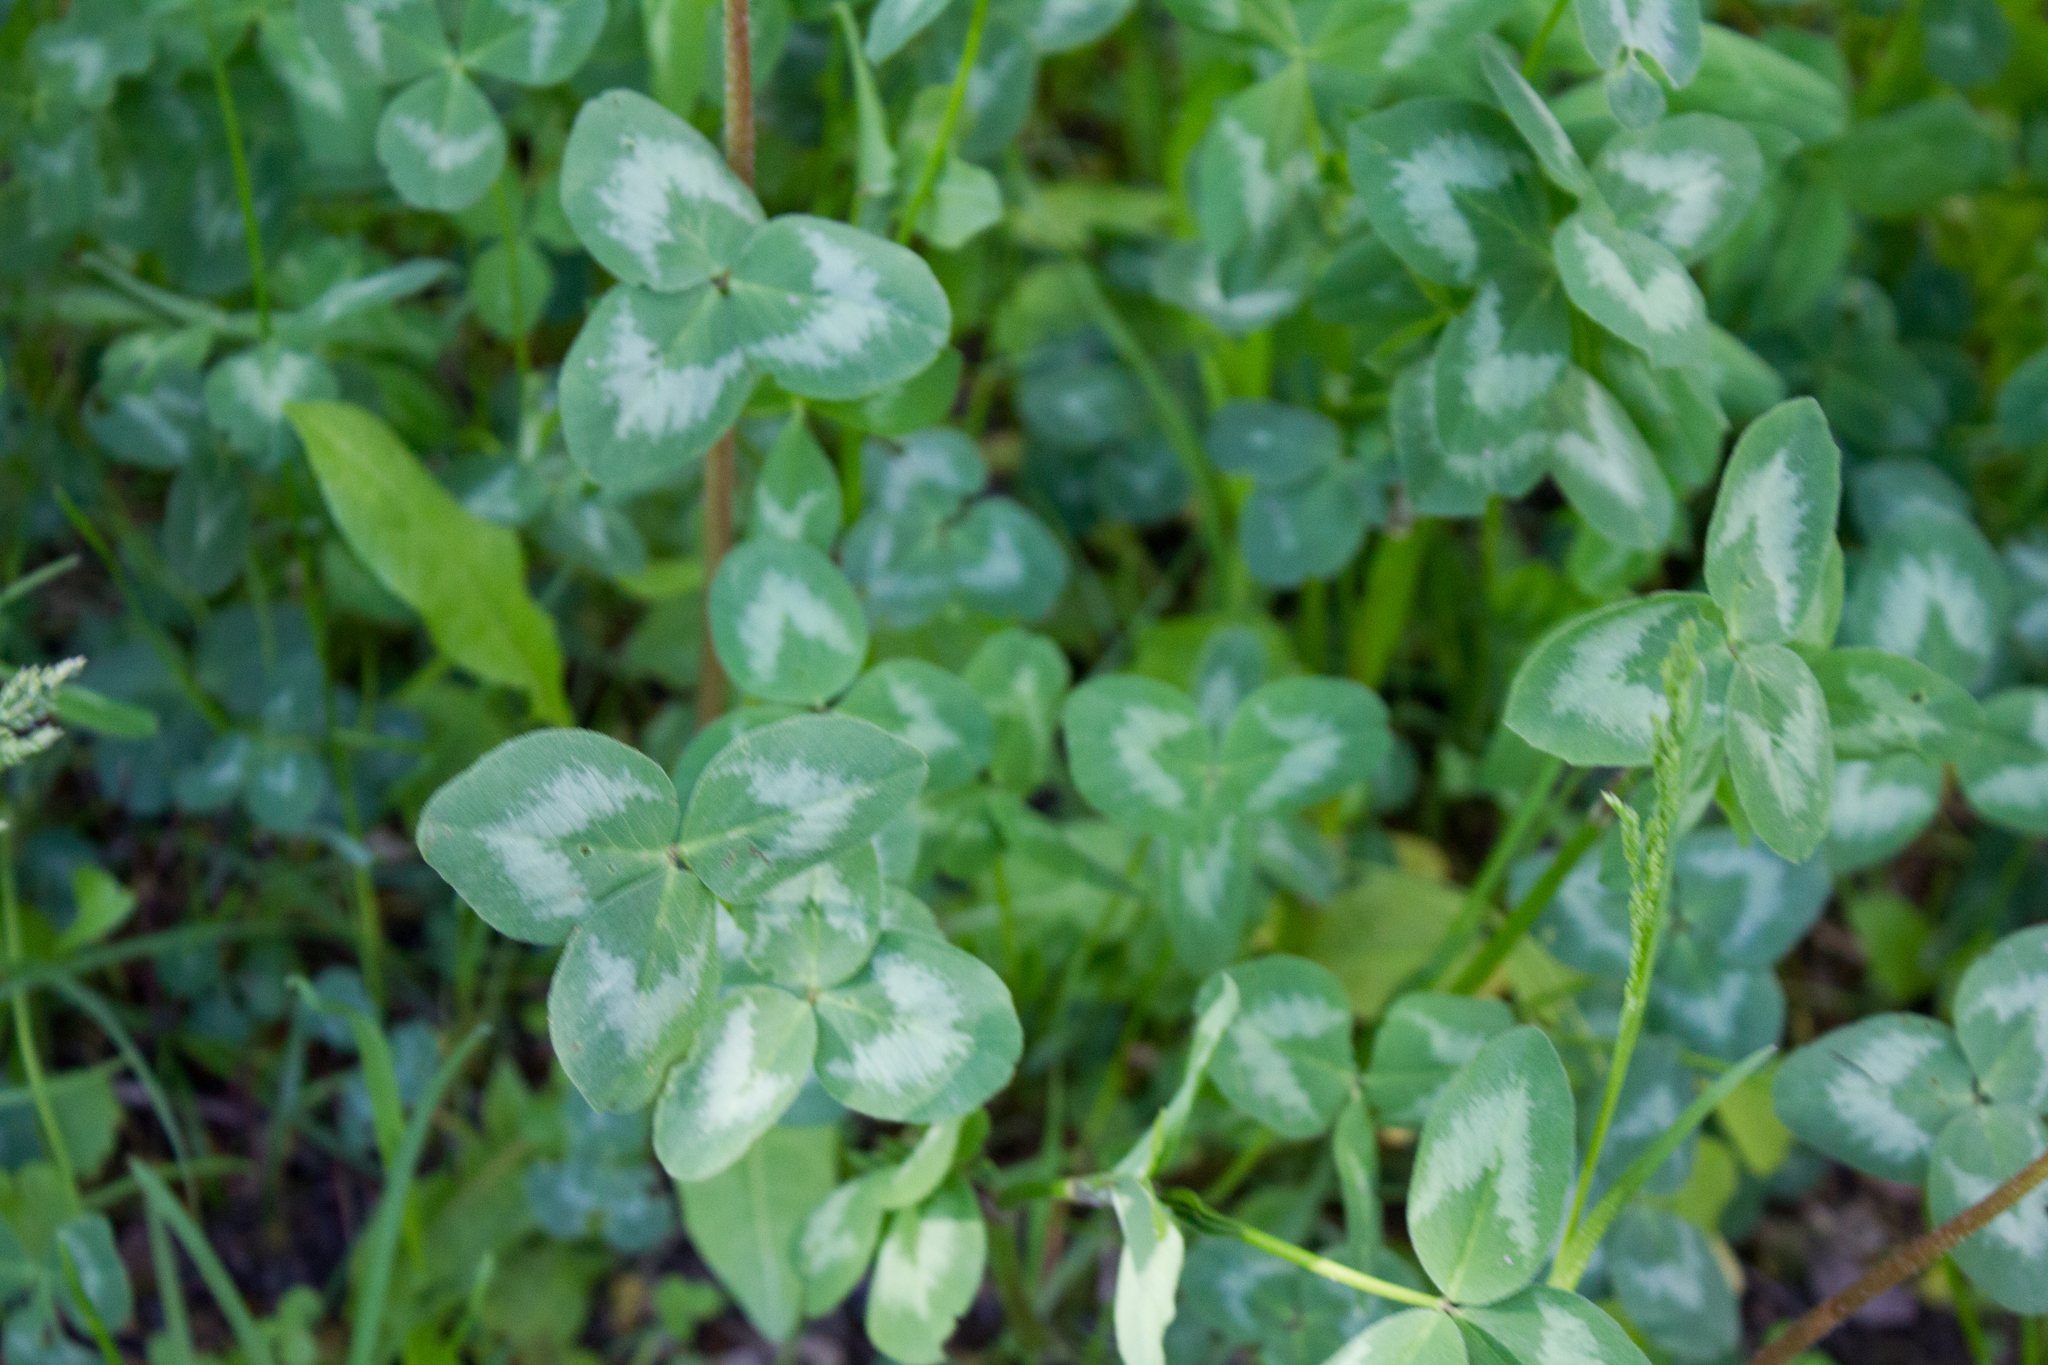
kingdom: Plantae
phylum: Tracheophyta
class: Magnoliopsida
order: Fabales
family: Fabaceae
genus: Trifolium
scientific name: Trifolium pratense
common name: Red clover
